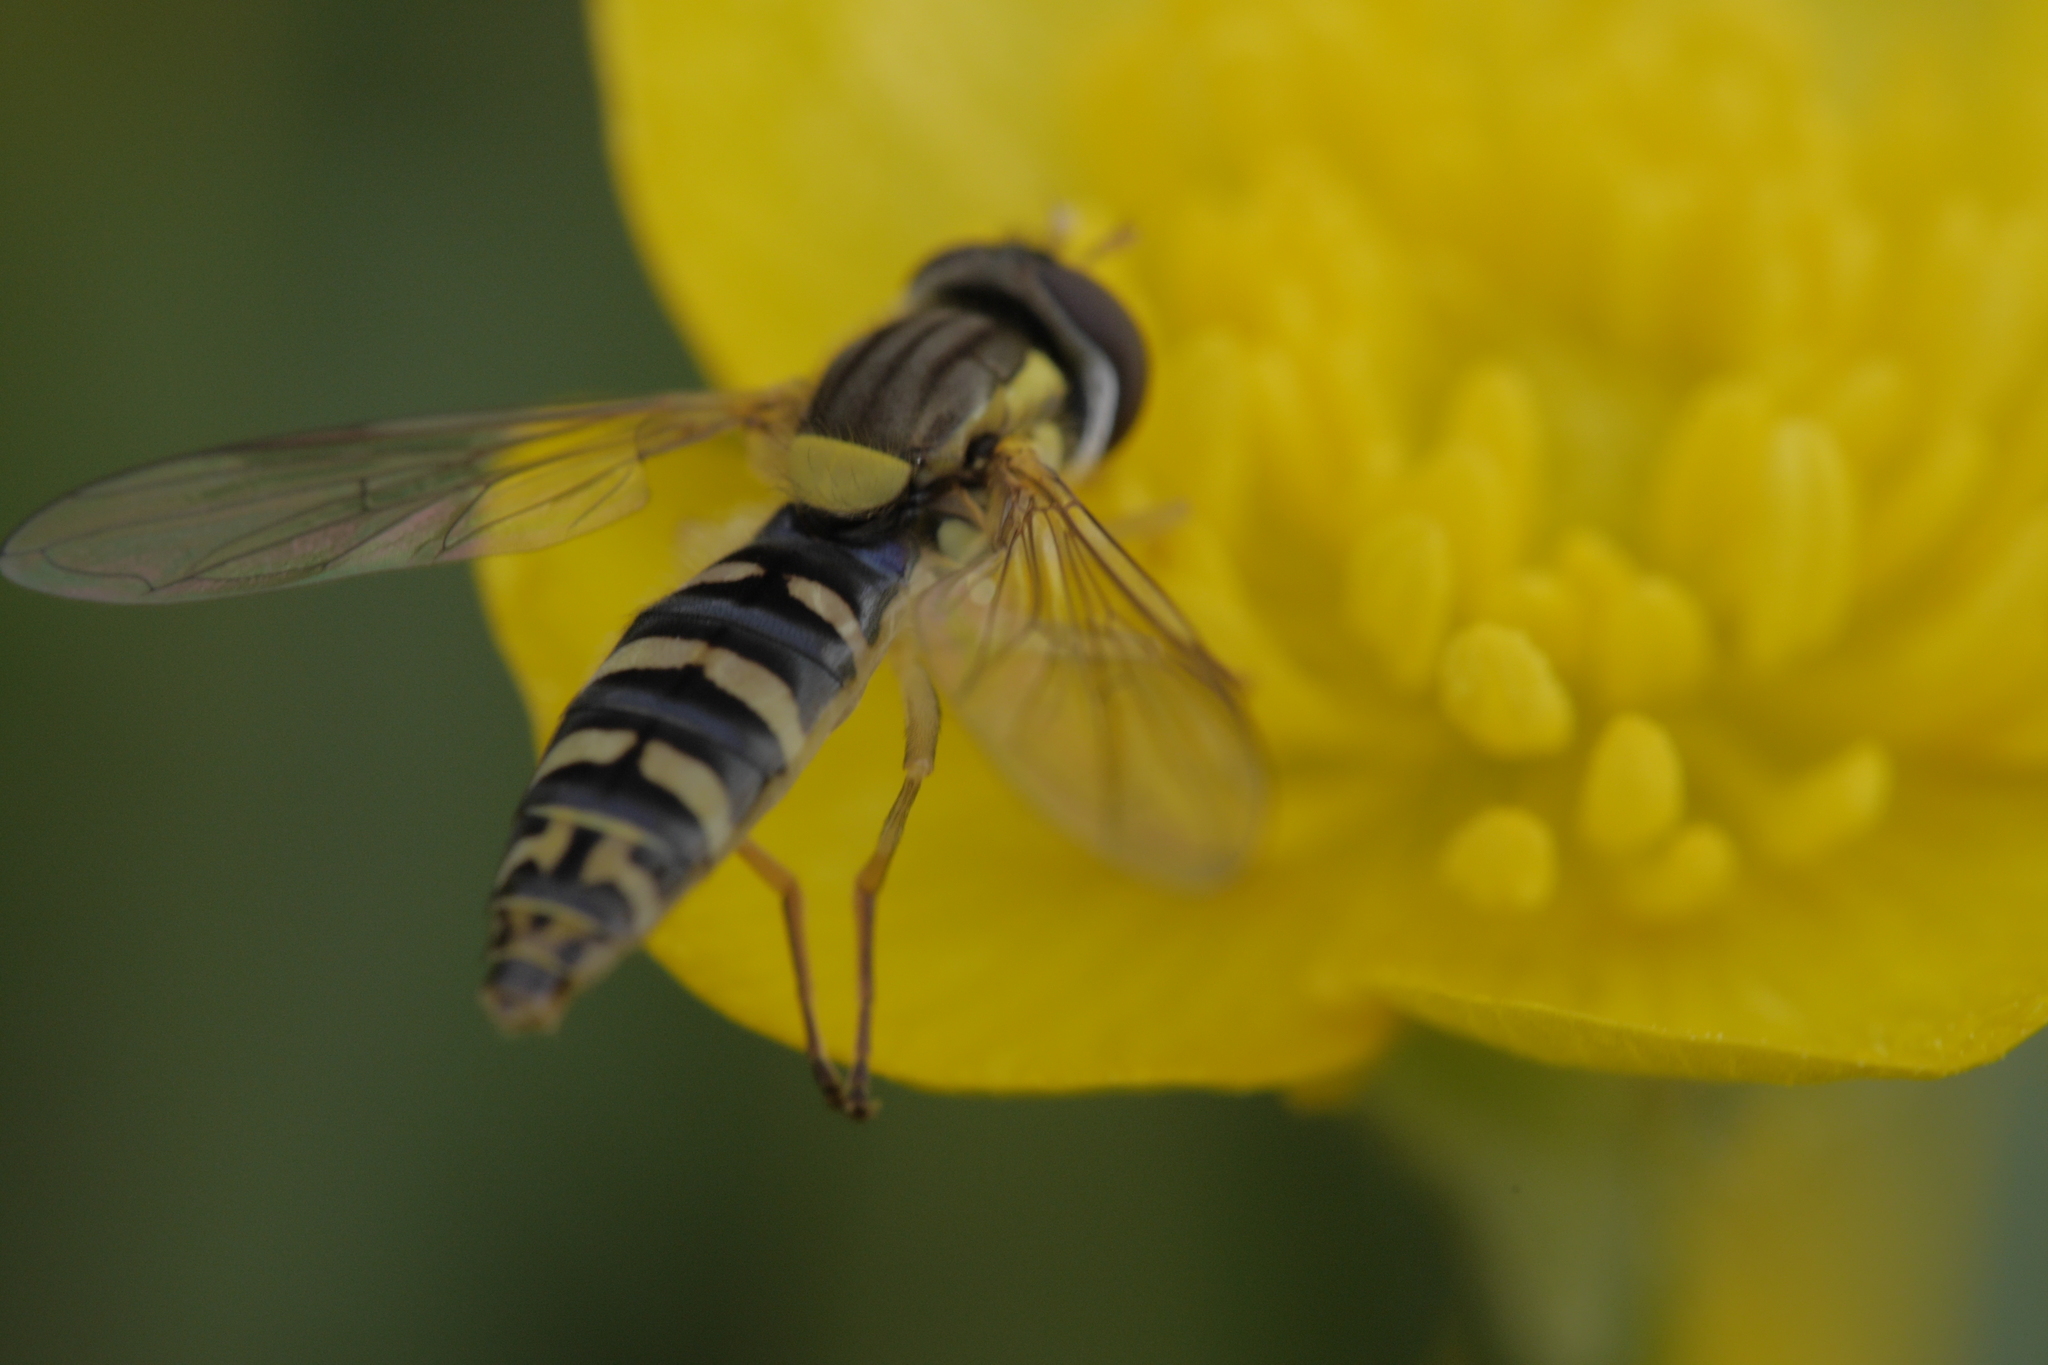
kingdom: Animalia
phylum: Arthropoda
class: Insecta
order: Diptera
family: Syrphidae
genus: Sphaerophoria
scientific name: Sphaerophoria
